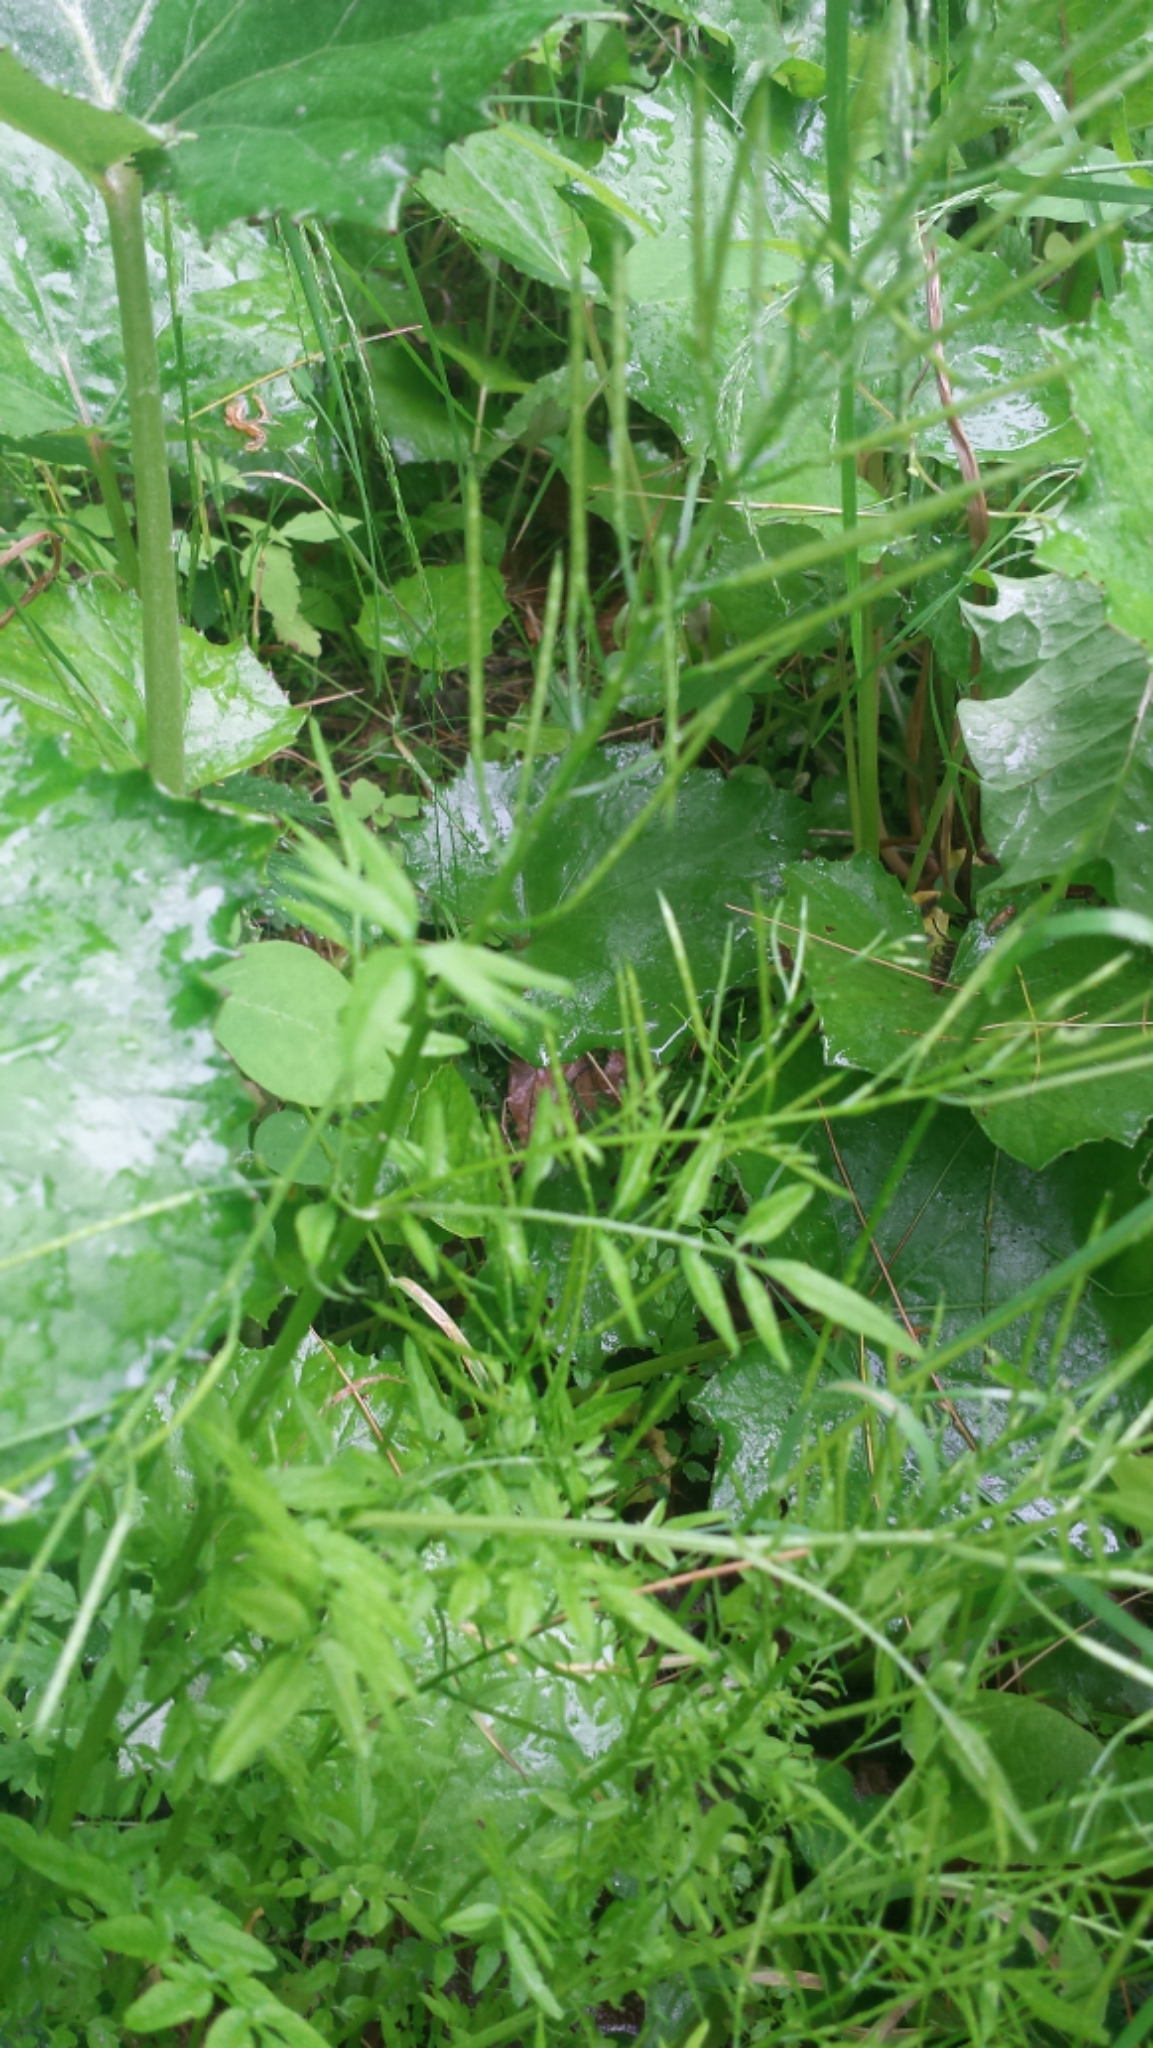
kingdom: Plantae
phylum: Tracheophyta
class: Magnoliopsida
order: Brassicales
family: Brassicaceae
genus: Cardamine
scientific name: Cardamine impatiens
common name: Narrow-leaved bitter-cress
